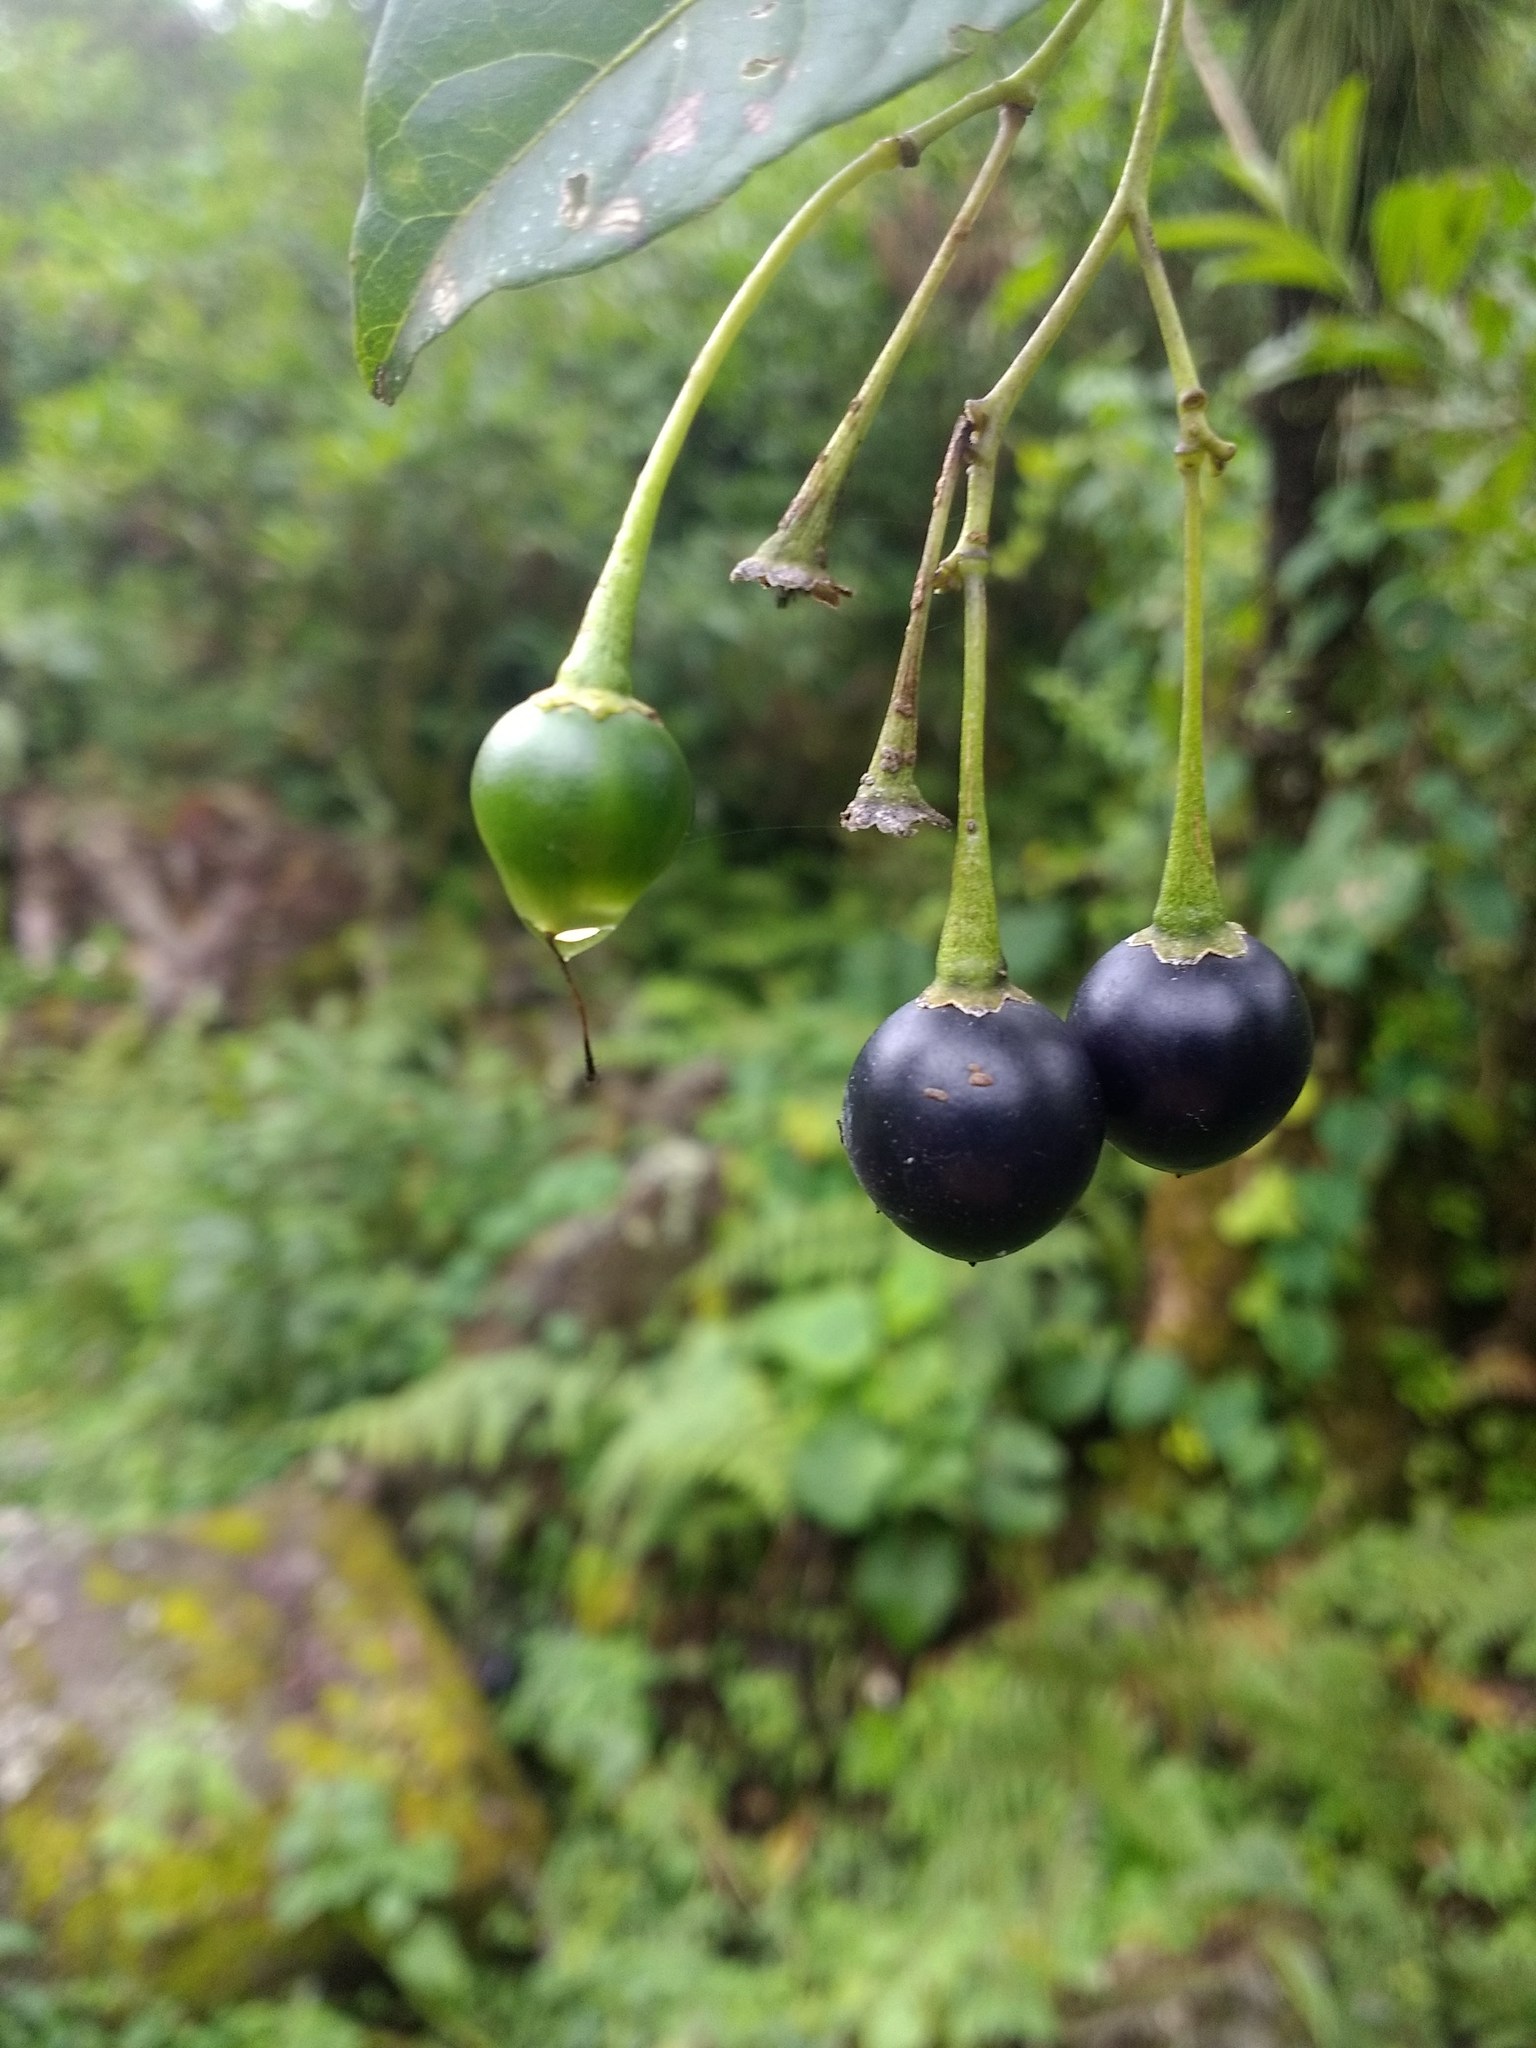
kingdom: Plantae
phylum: Tracheophyta
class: Magnoliopsida
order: Solanales
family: Solanaceae
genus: Cestrum
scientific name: Cestrum parqui
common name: Chilean cestrum
